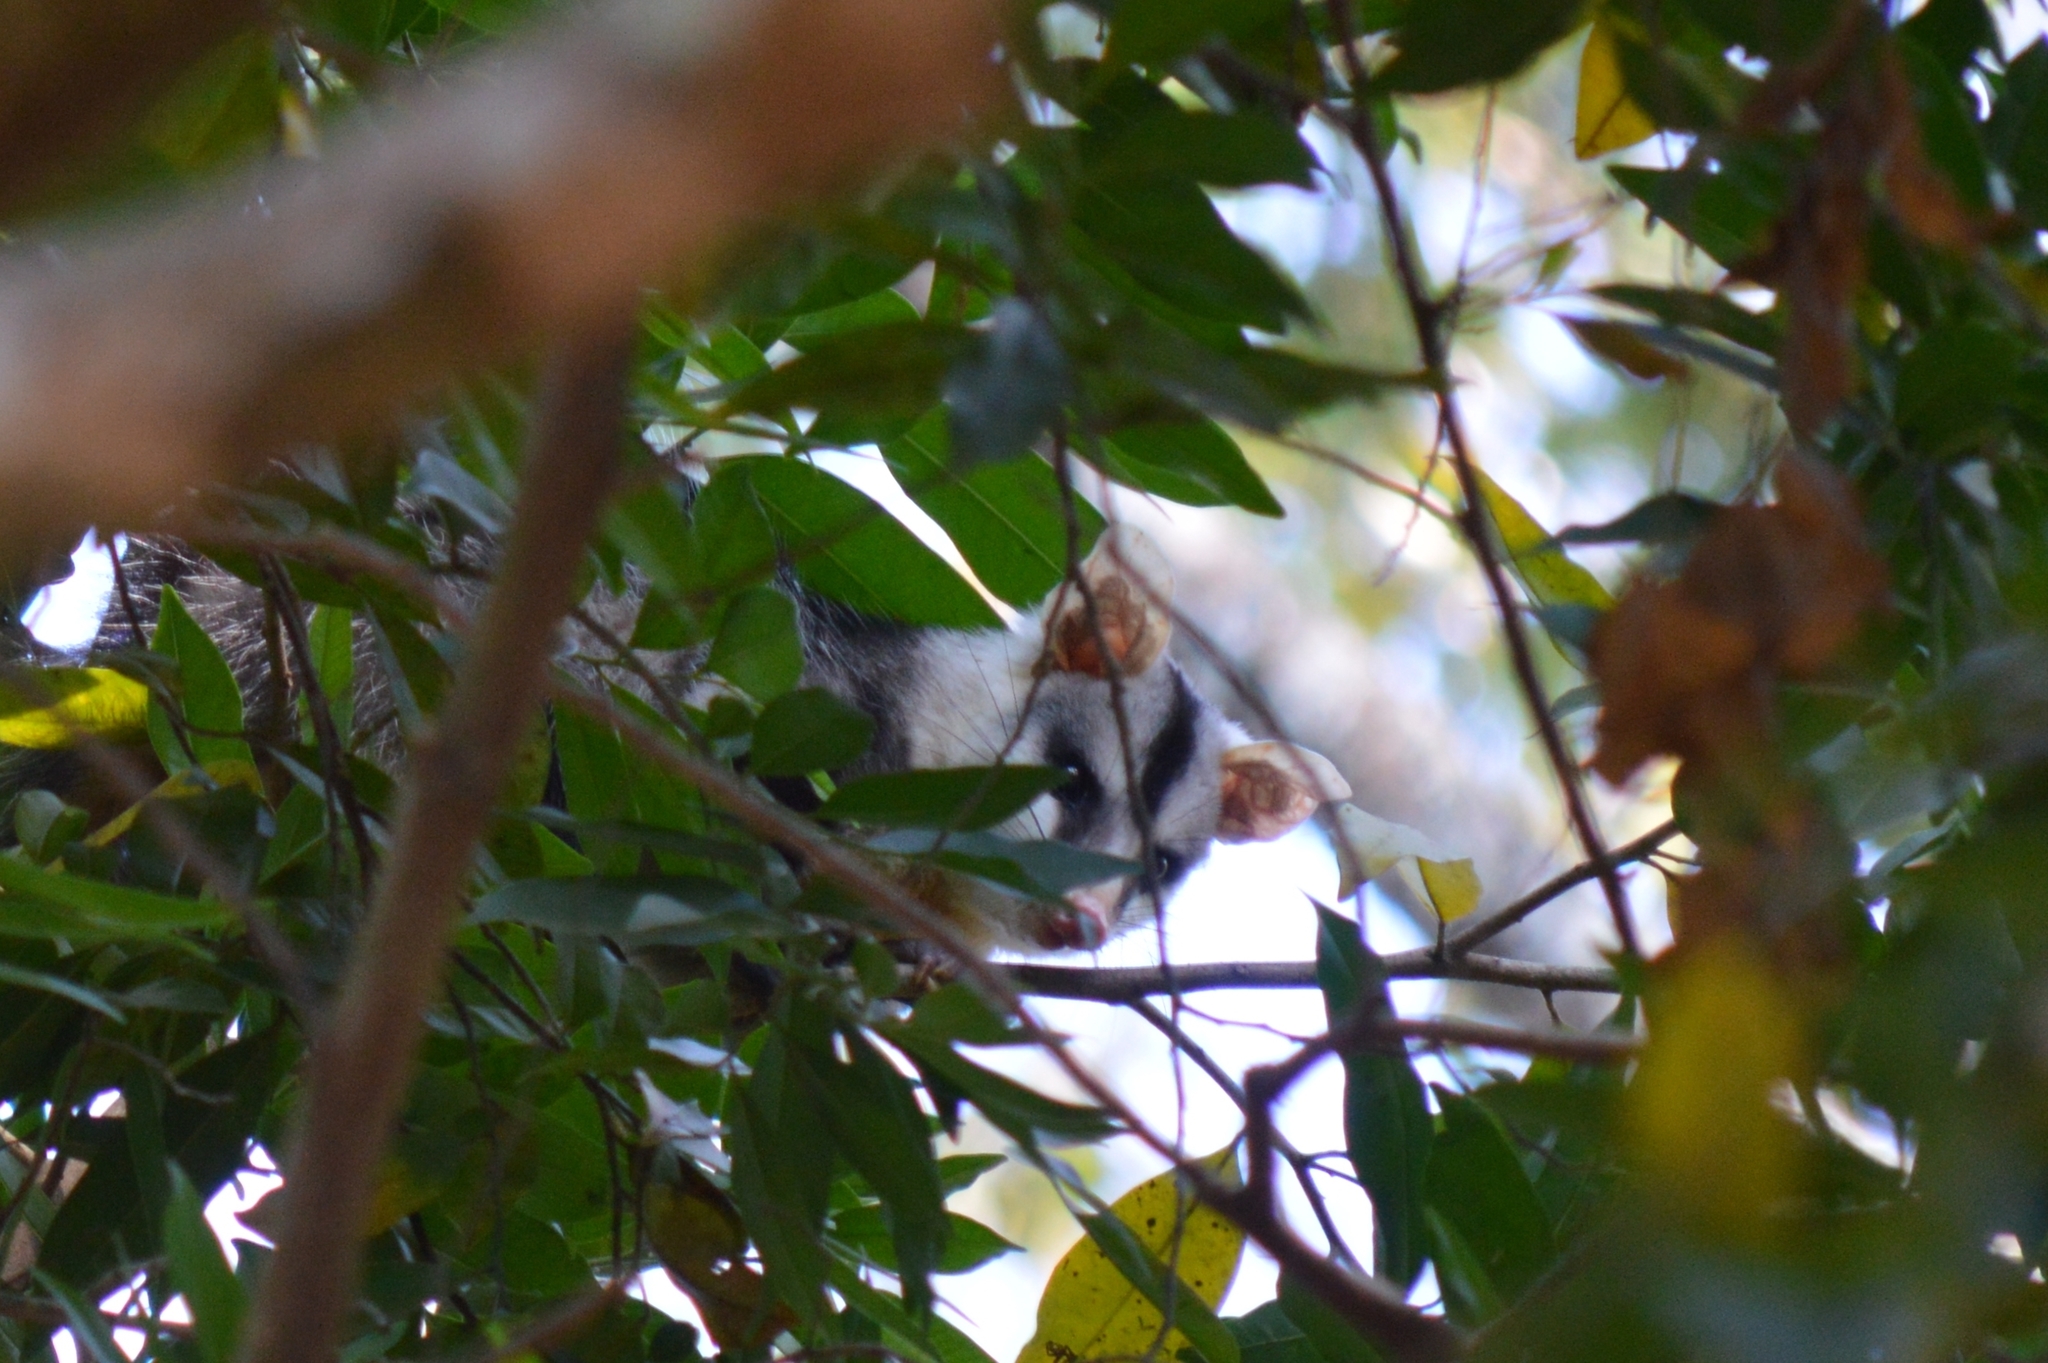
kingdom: Animalia
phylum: Chordata
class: Mammalia
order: Didelphimorphia
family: Didelphidae
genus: Didelphis
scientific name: Didelphis albiventris
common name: White-eared opossum
